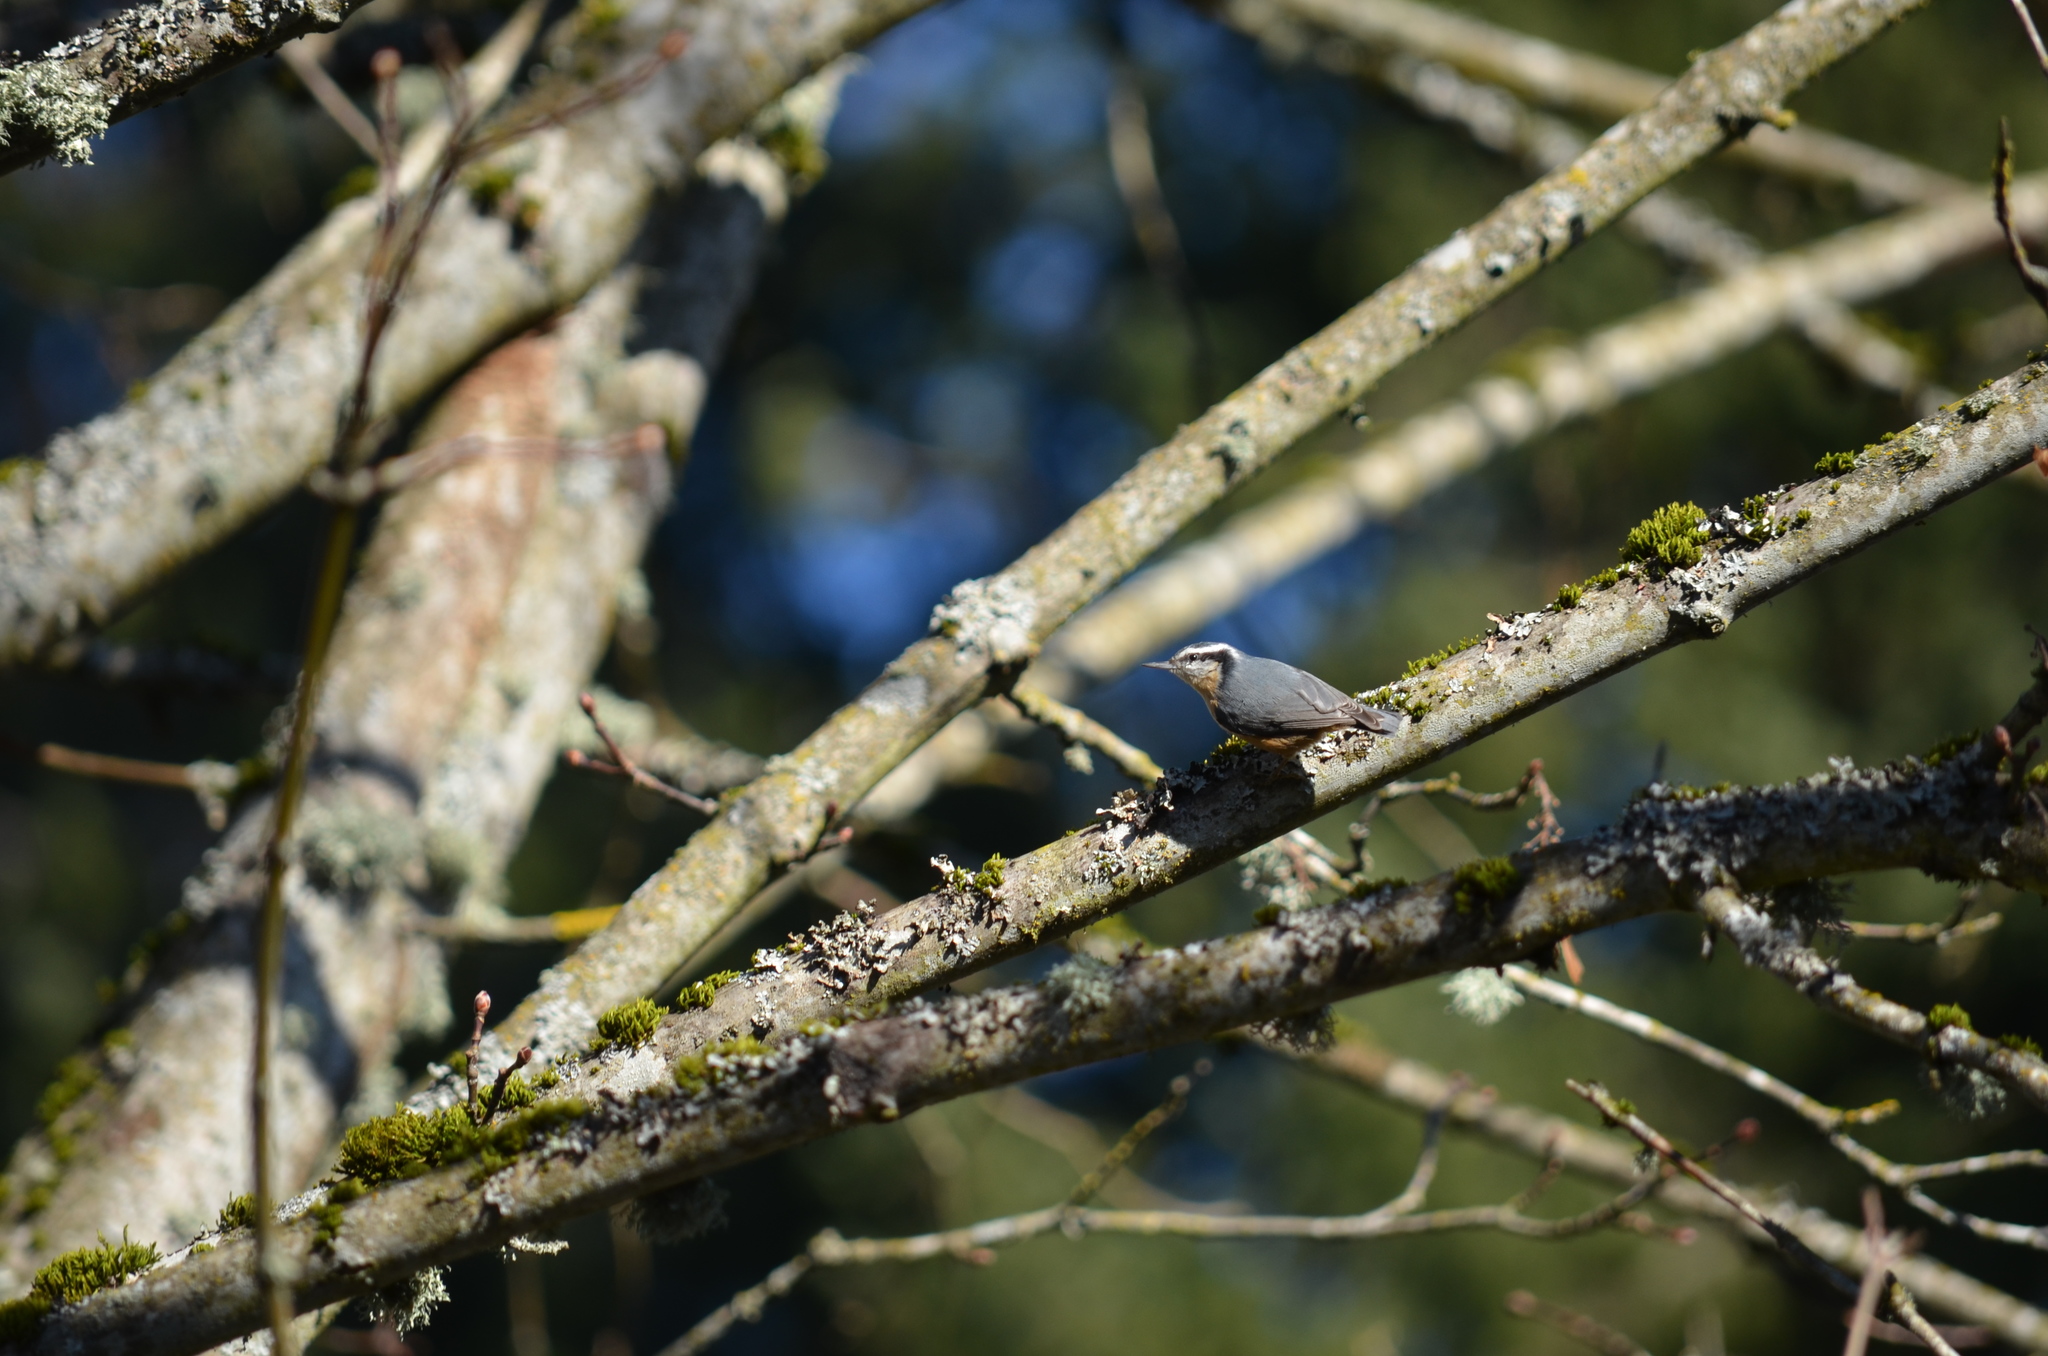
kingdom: Animalia
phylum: Chordata
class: Aves
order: Passeriformes
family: Sittidae
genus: Sitta
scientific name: Sitta canadensis
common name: Red-breasted nuthatch
